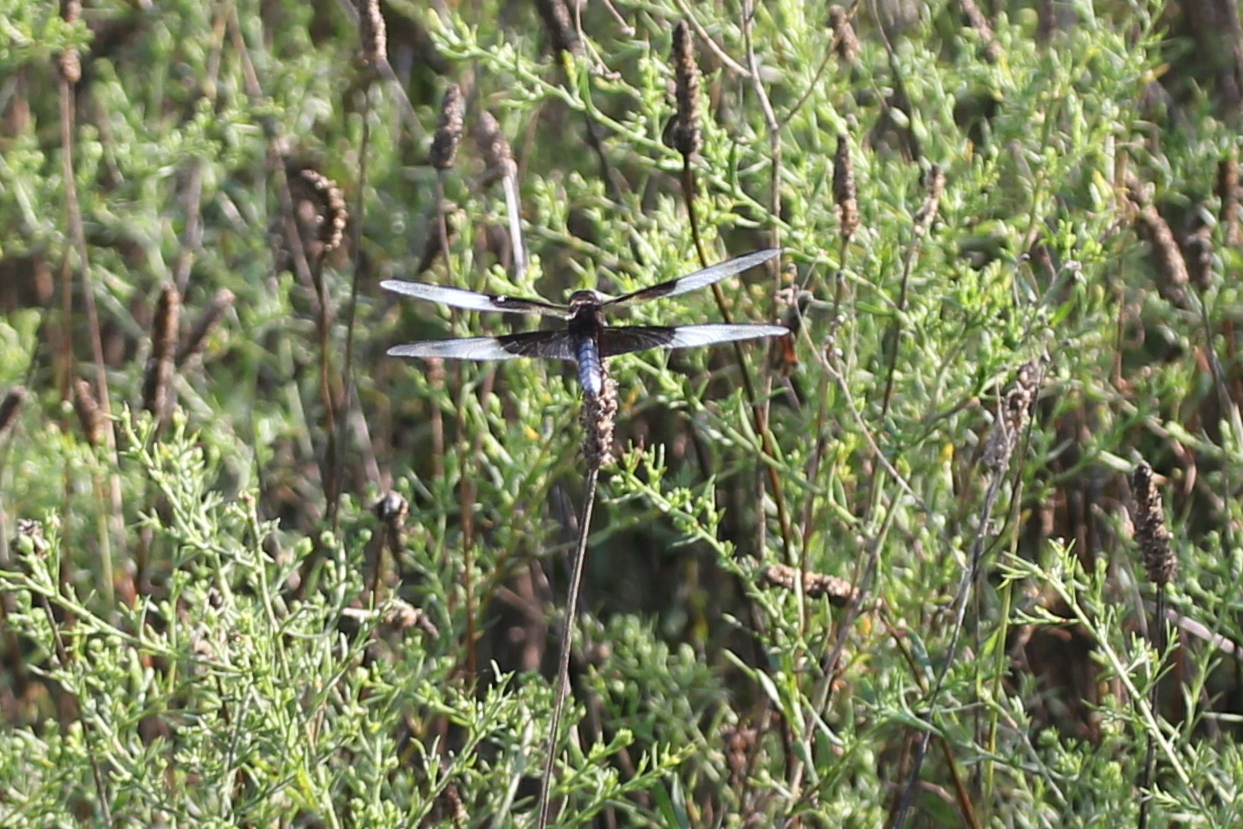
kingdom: Animalia
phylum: Arthropoda
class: Insecta
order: Odonata
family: Libellulidae
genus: Libellula
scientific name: Libellula luctuosa
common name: Widow skimmer
